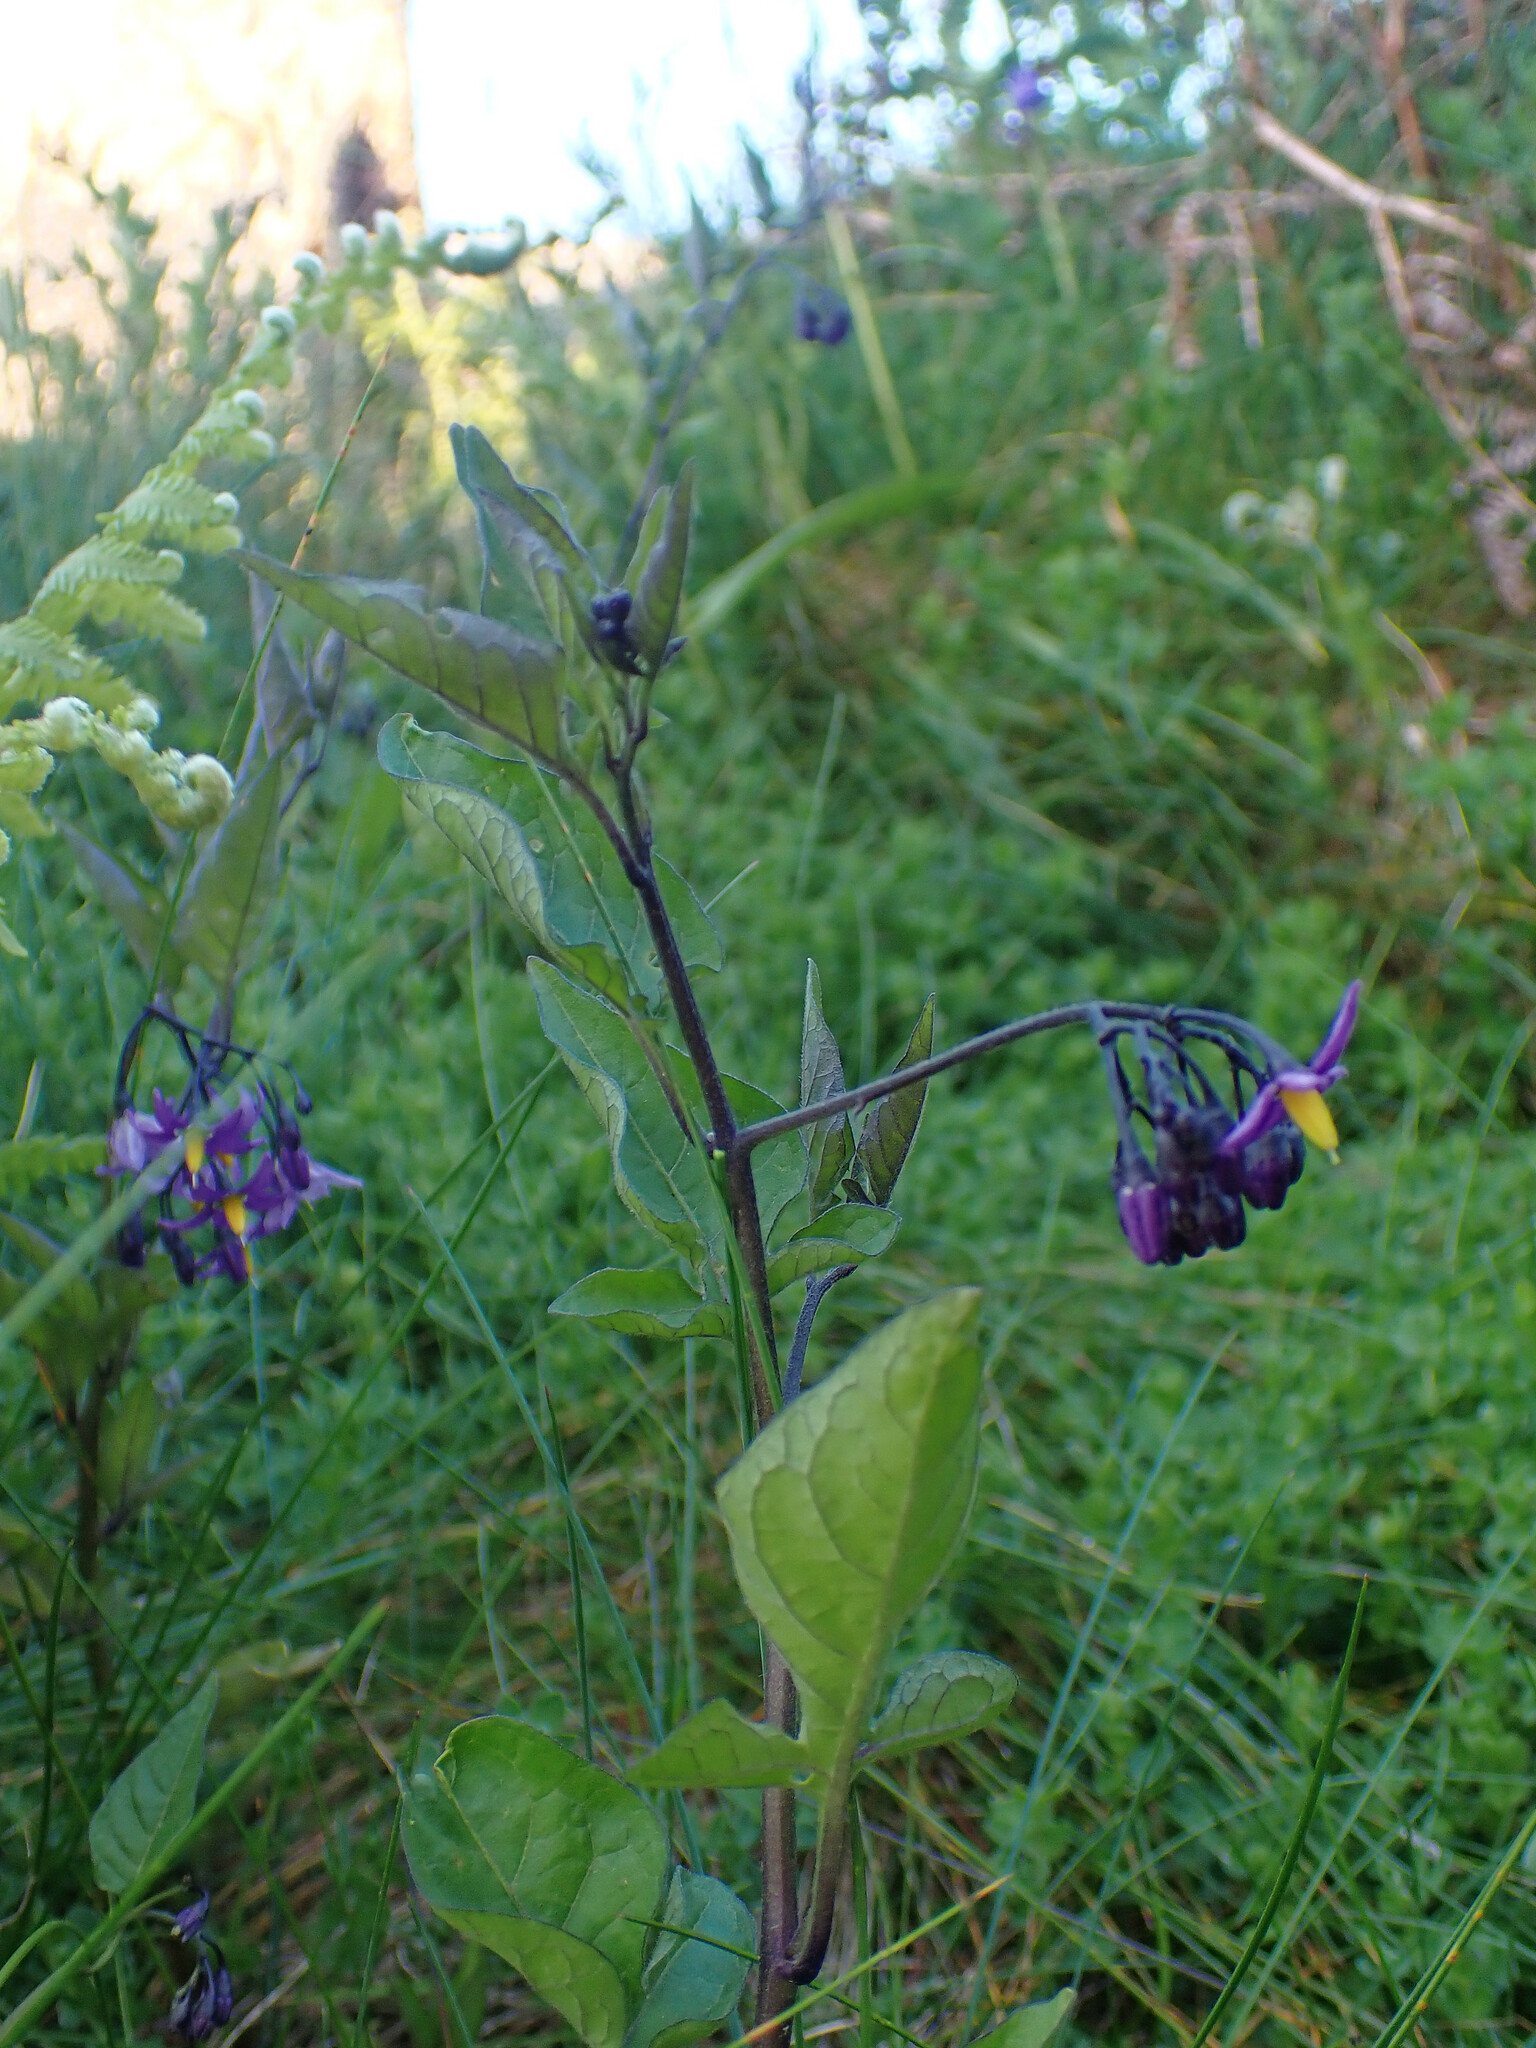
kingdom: Plantae
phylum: Tracheophyta
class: Magnoliopsida
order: Solanales
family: Solanaceae
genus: Solanum
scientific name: Solanum dulcamara
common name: Climbing nightshade
